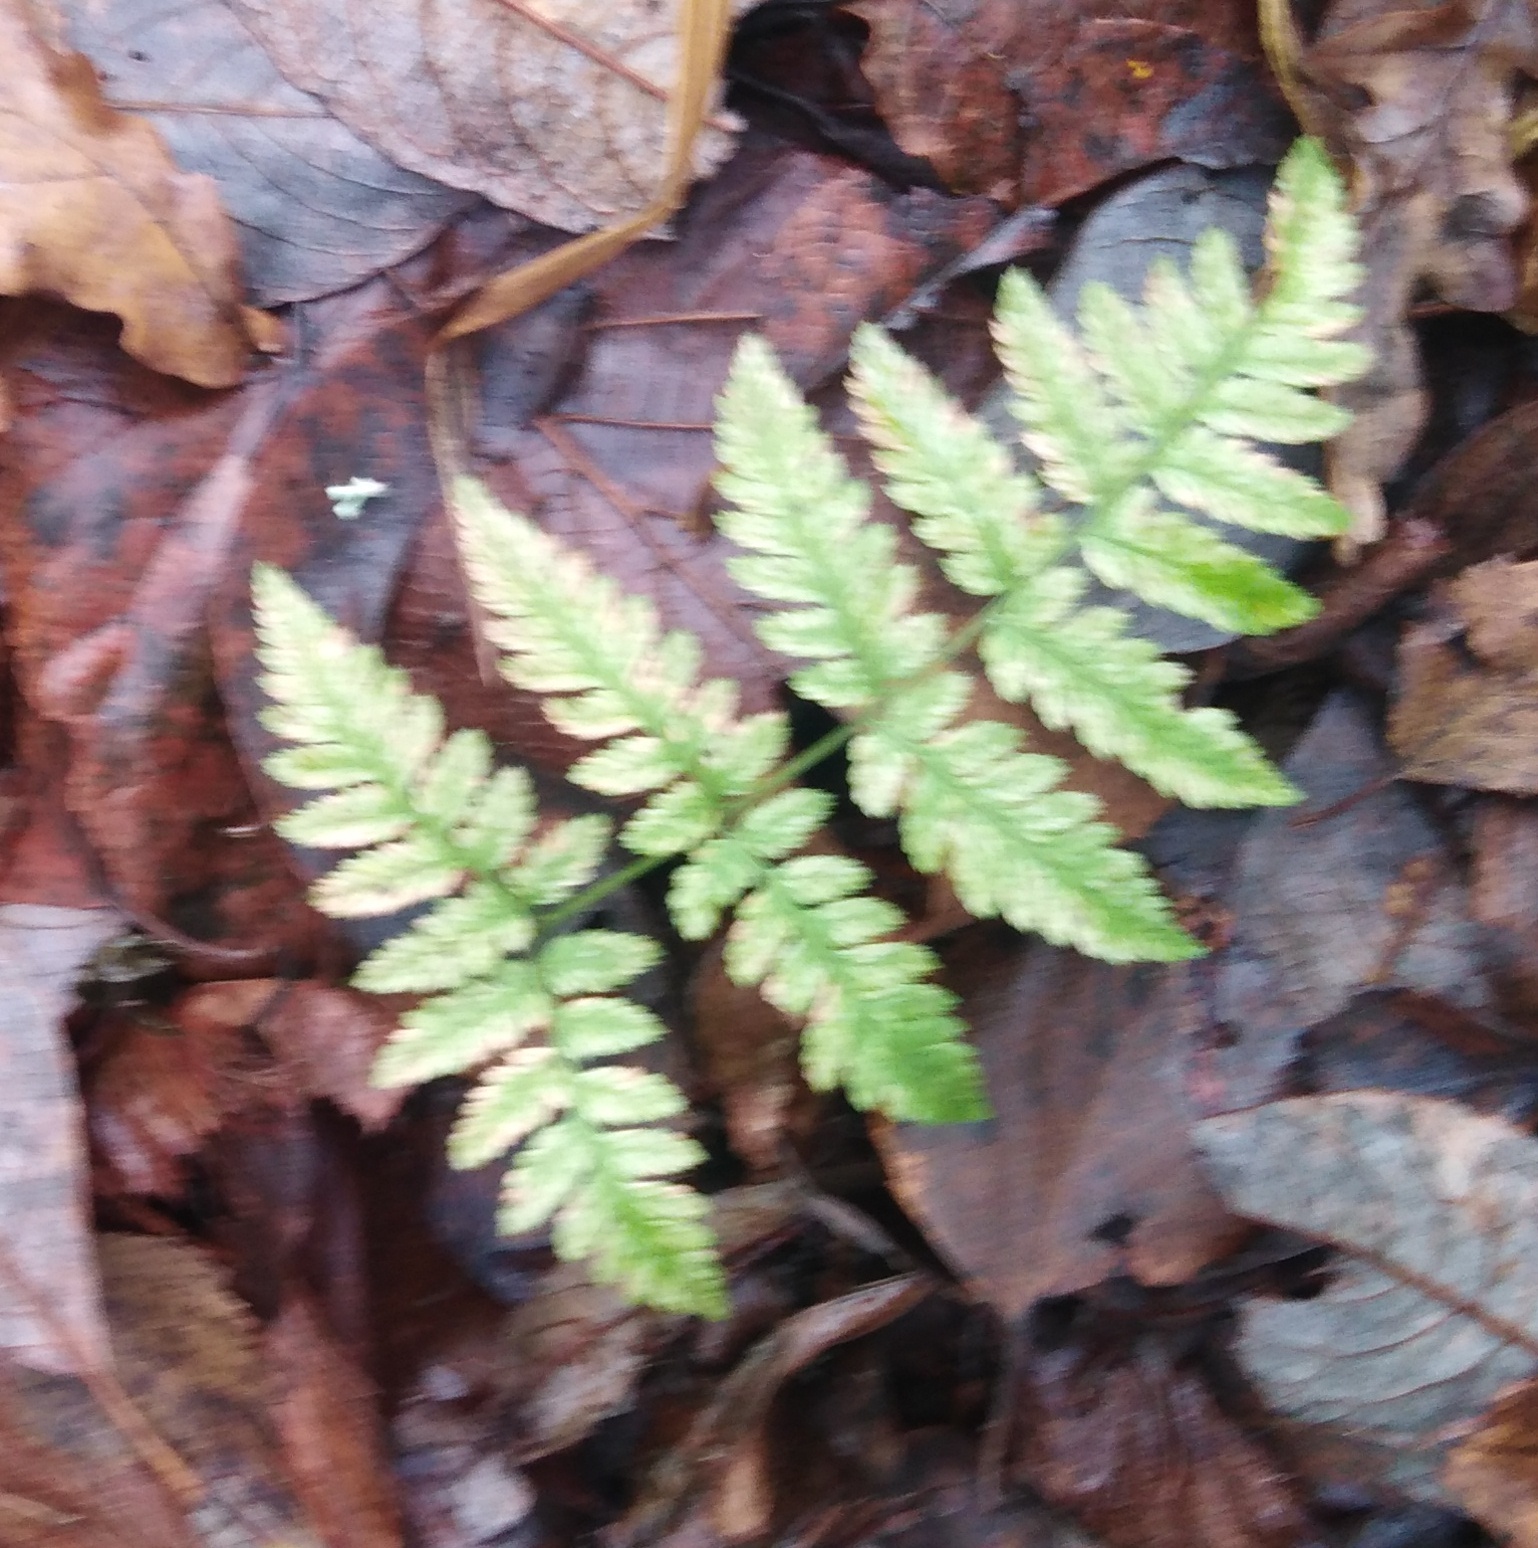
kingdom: Plantae
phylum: Tracheophyta
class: Polypodiopsida
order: Polypodiales
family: Dryopteridaceae
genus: Dryopteris
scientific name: Dryopteris carthusiana
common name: Narrow buckler-fern
